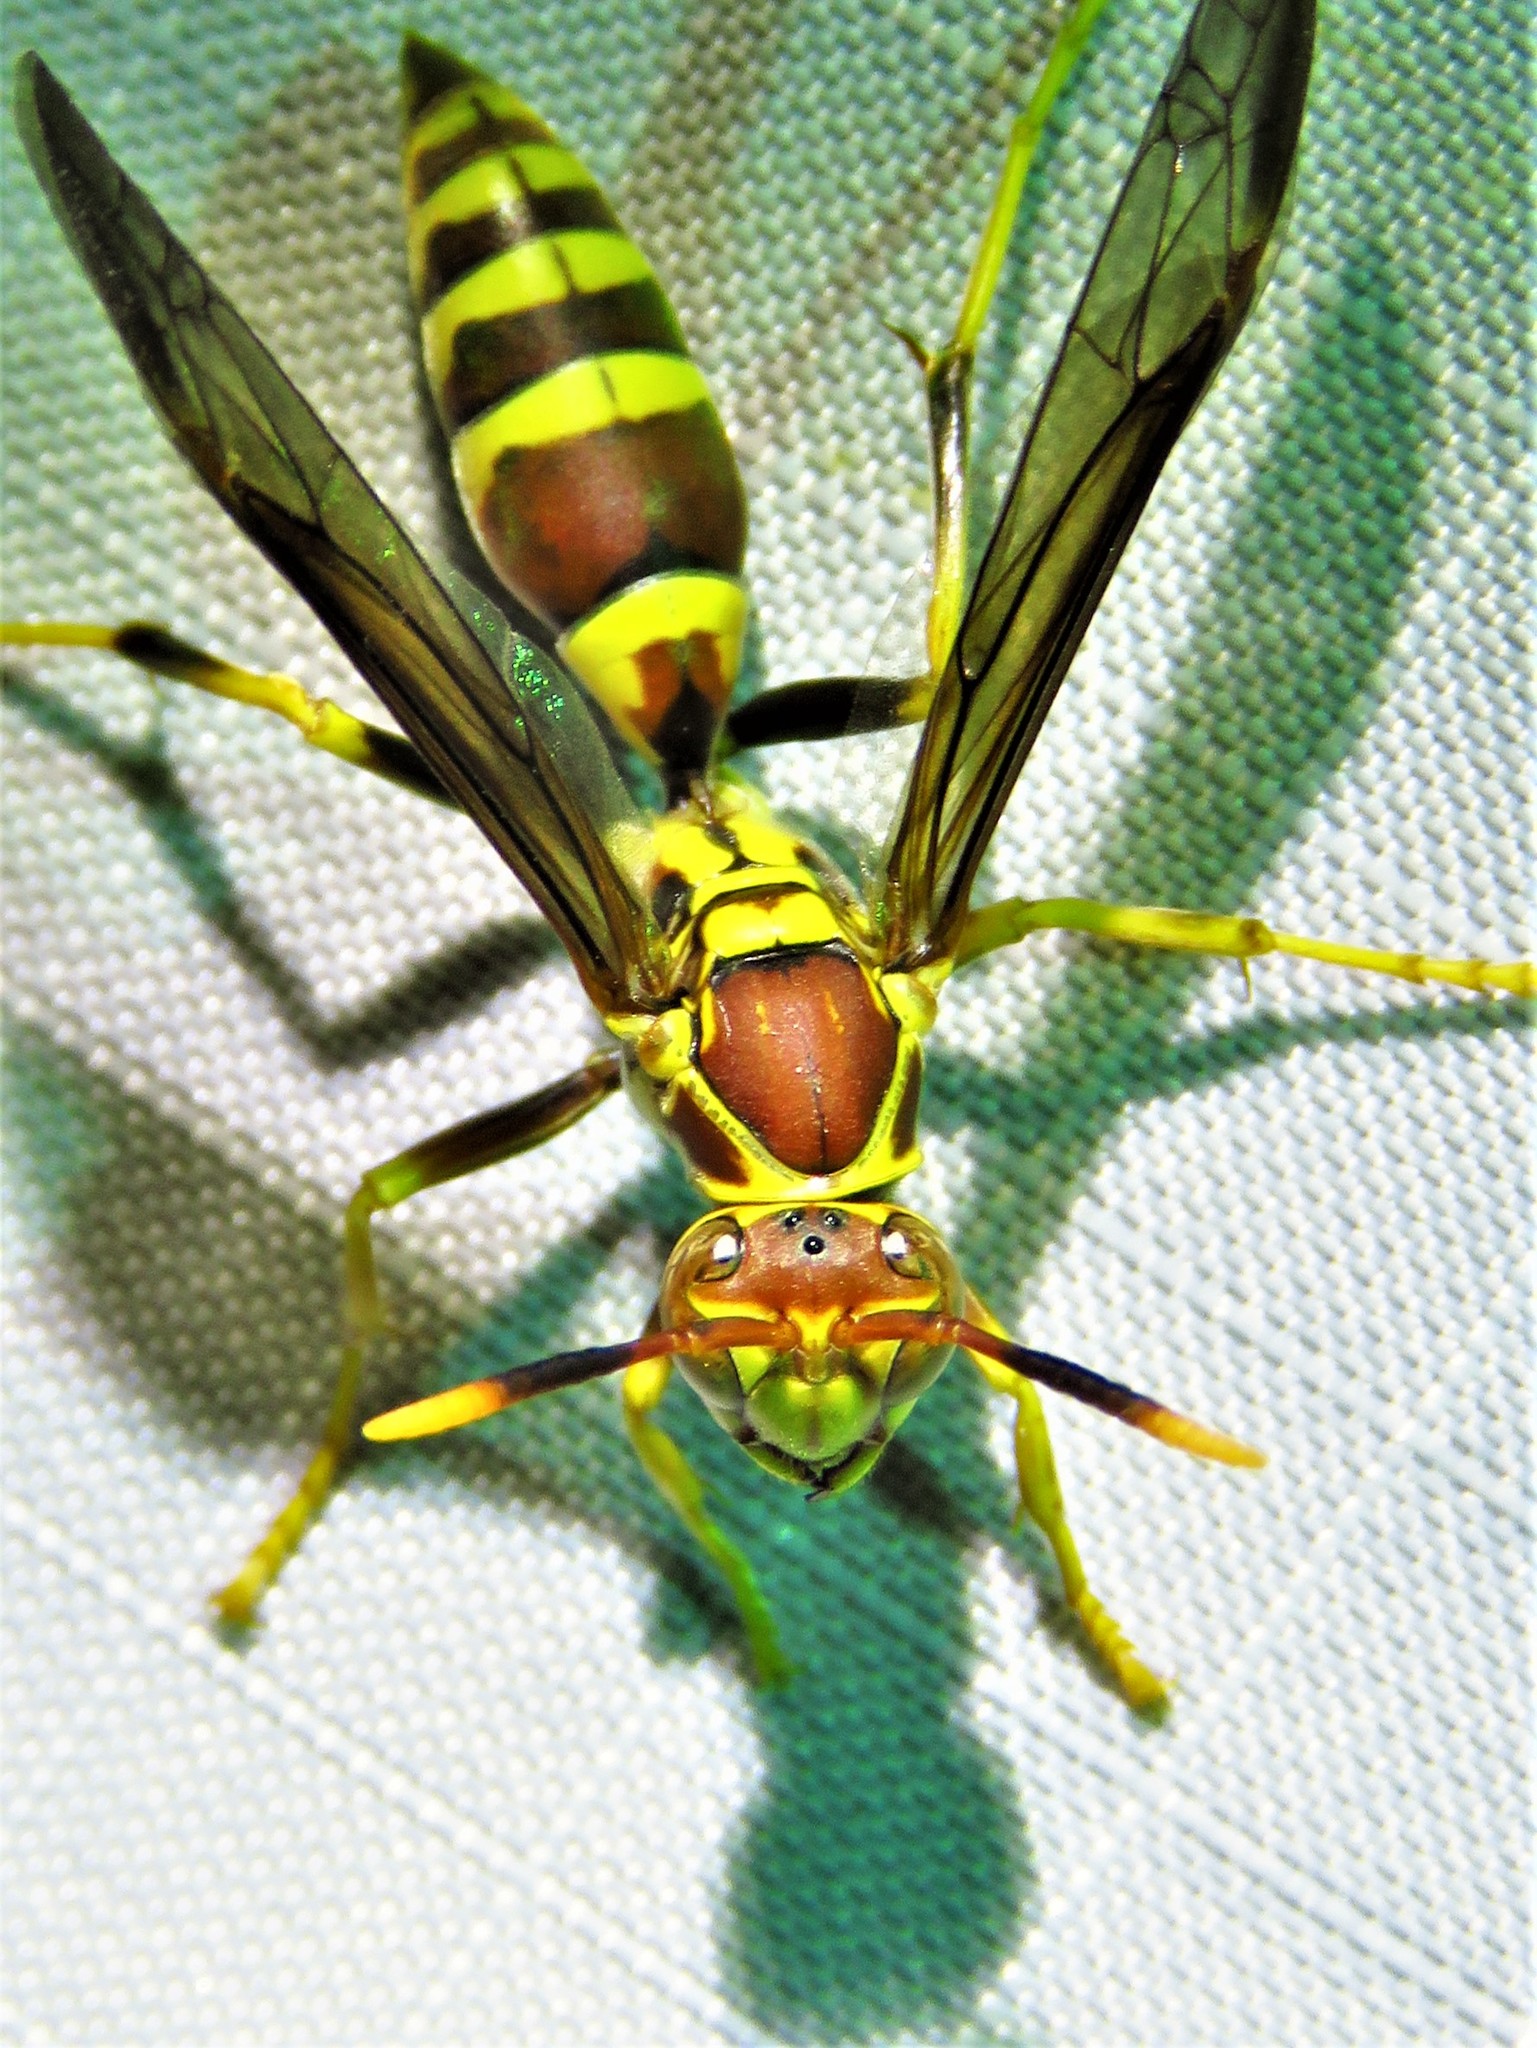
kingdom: Animalia
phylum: Arthropoda
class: Insecta
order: Hymenoptera
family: Eumenidae
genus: Polistes
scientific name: Polistes exclamans
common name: Paper wasp
